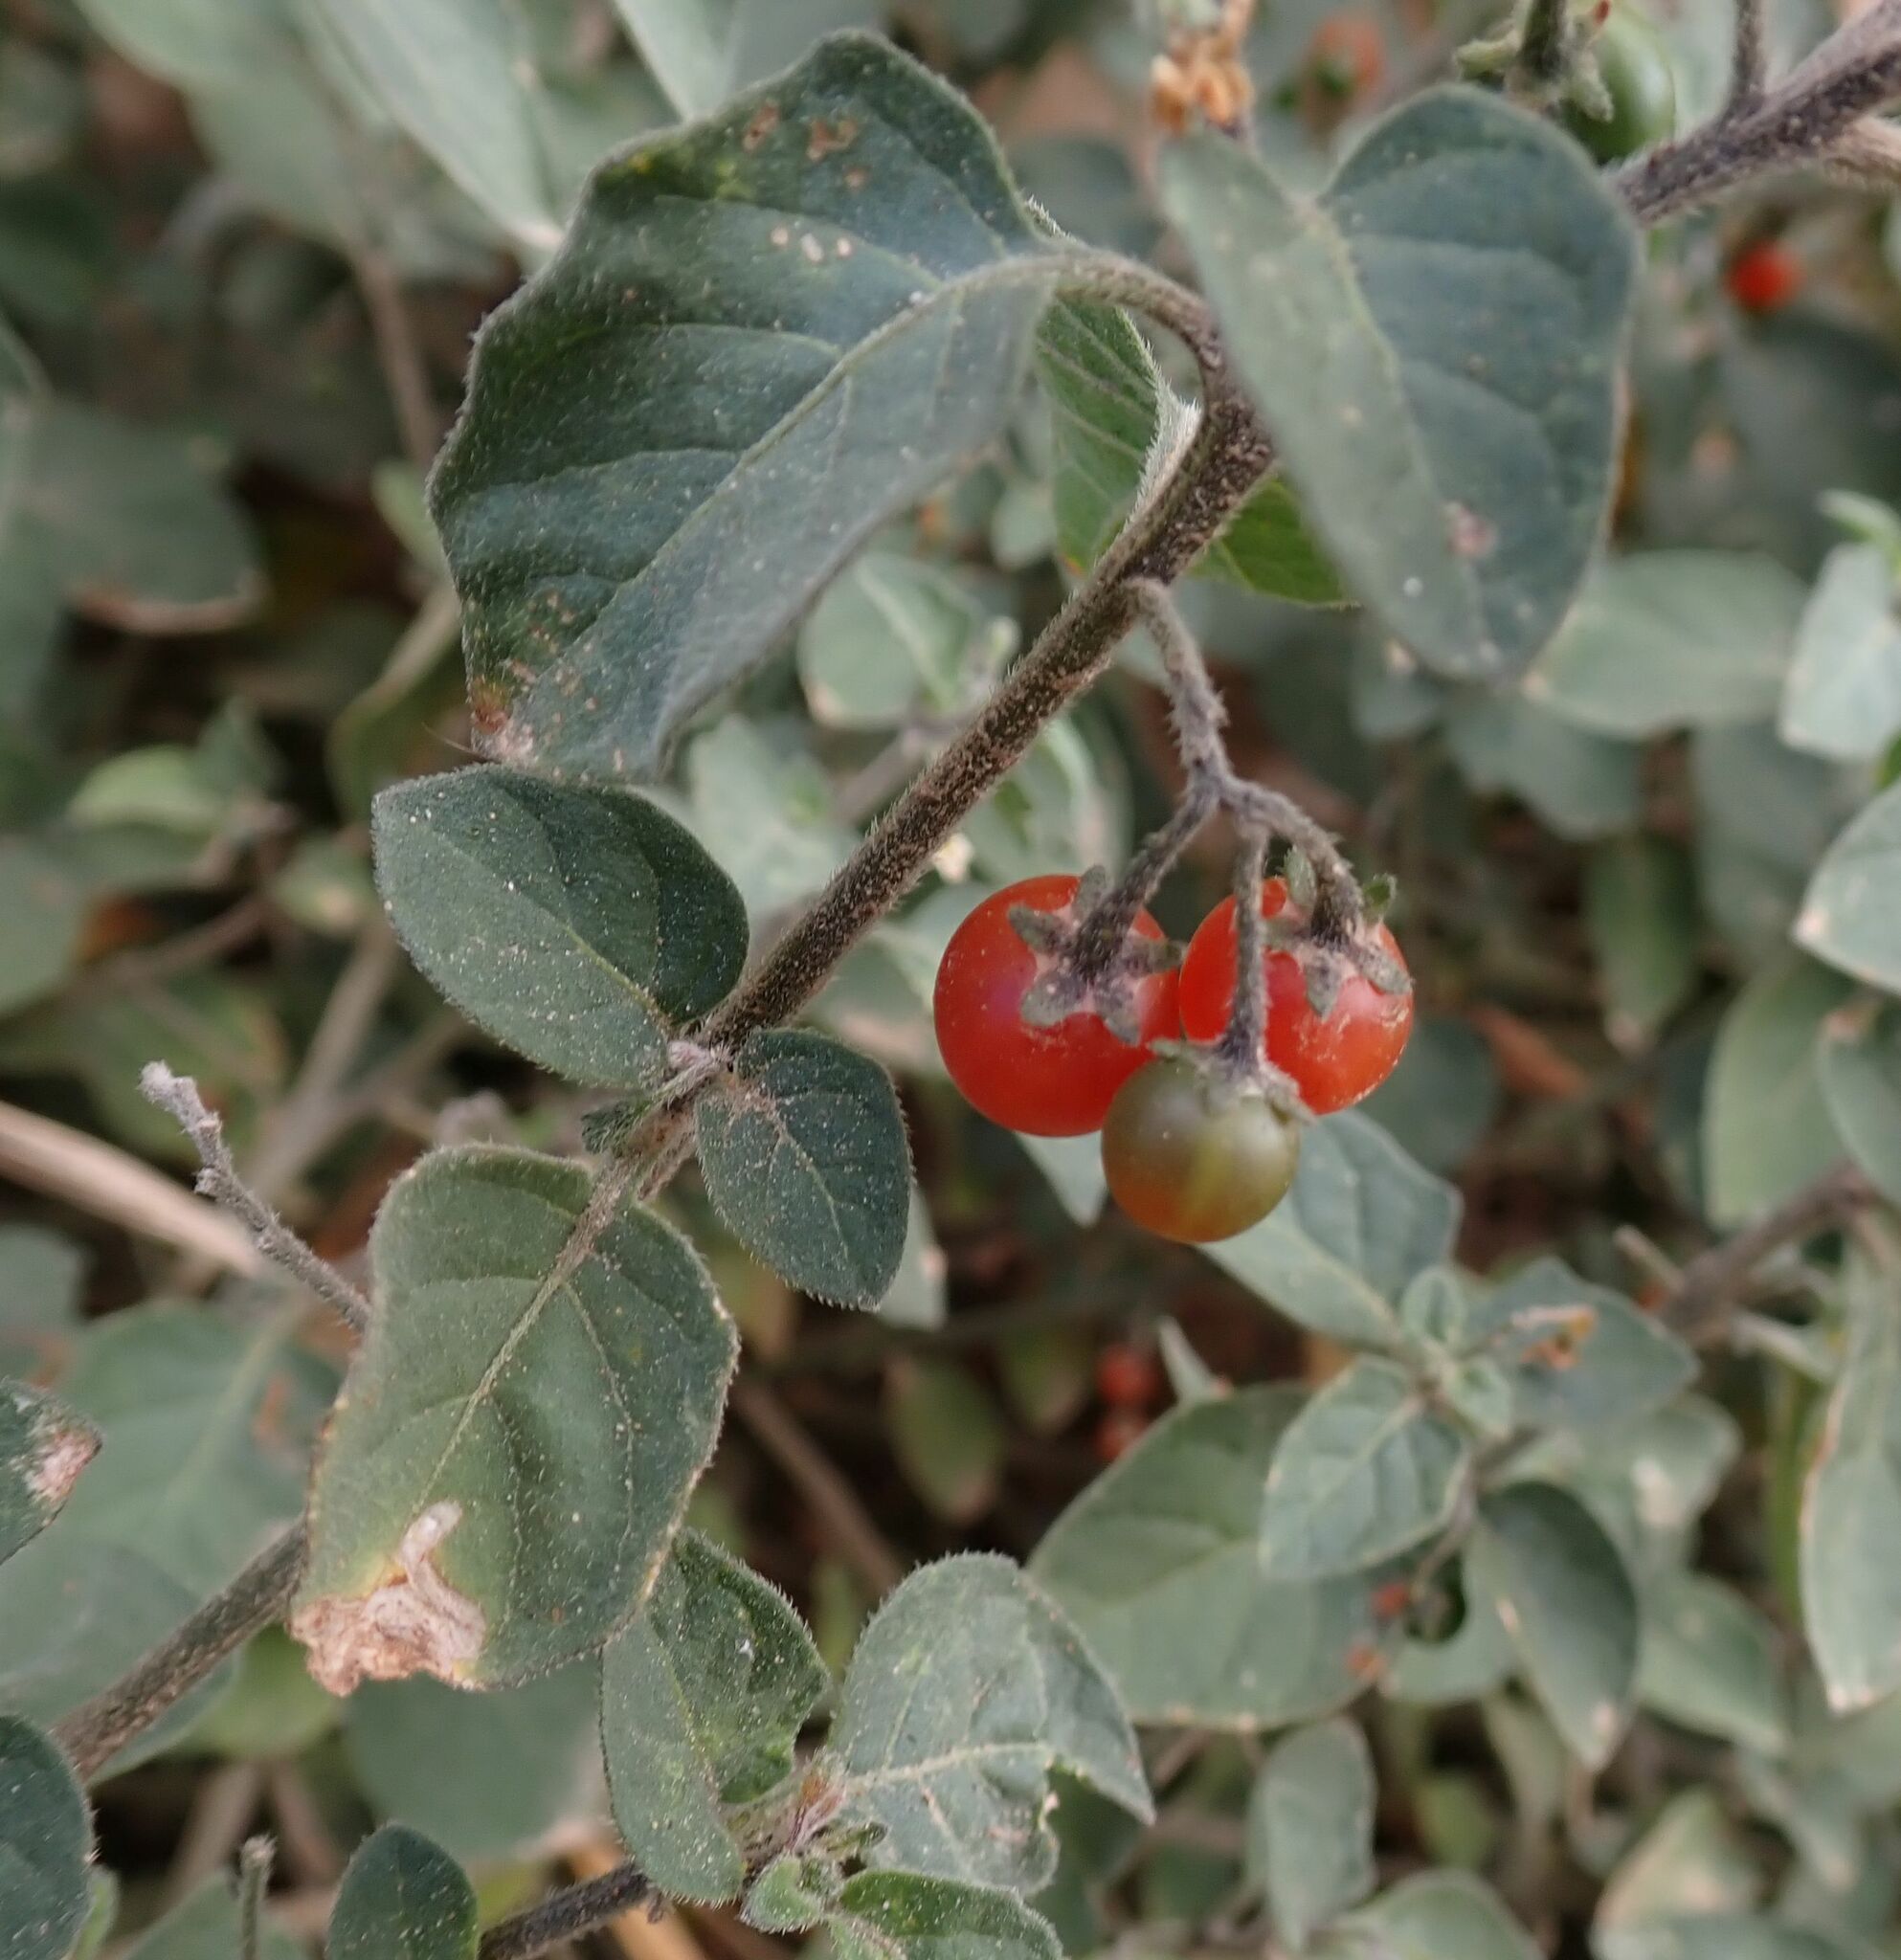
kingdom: Plantae
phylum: Tracheophyta
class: Magnoliopsida
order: Solanales
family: Solanaceae
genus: Solanum
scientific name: Solanum villosum
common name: Red nightshade
